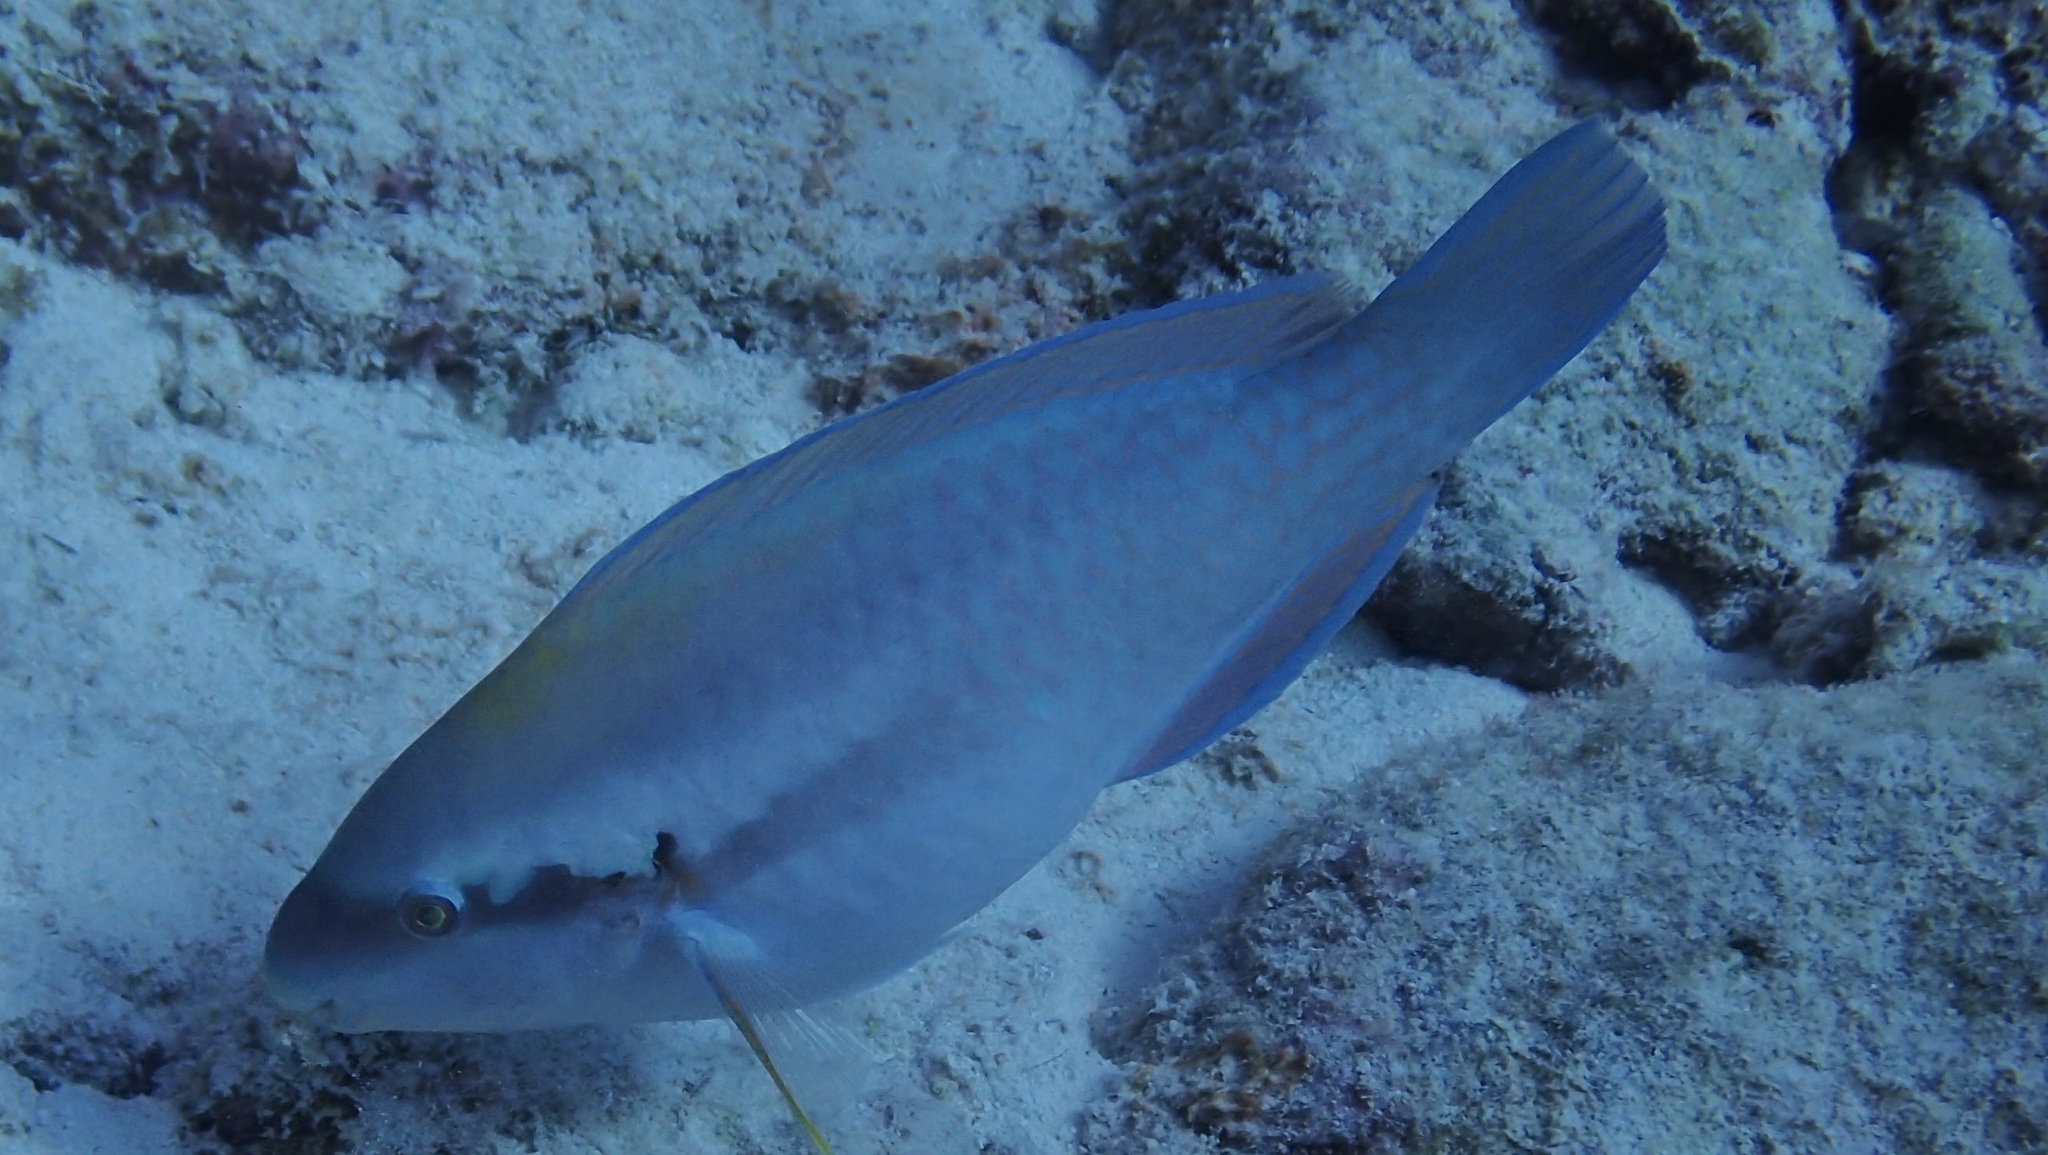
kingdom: Animalia
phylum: Chordata
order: Perciformes
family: Scaridae
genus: Scarus
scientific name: Scarus iseri
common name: Striped parrotfish
